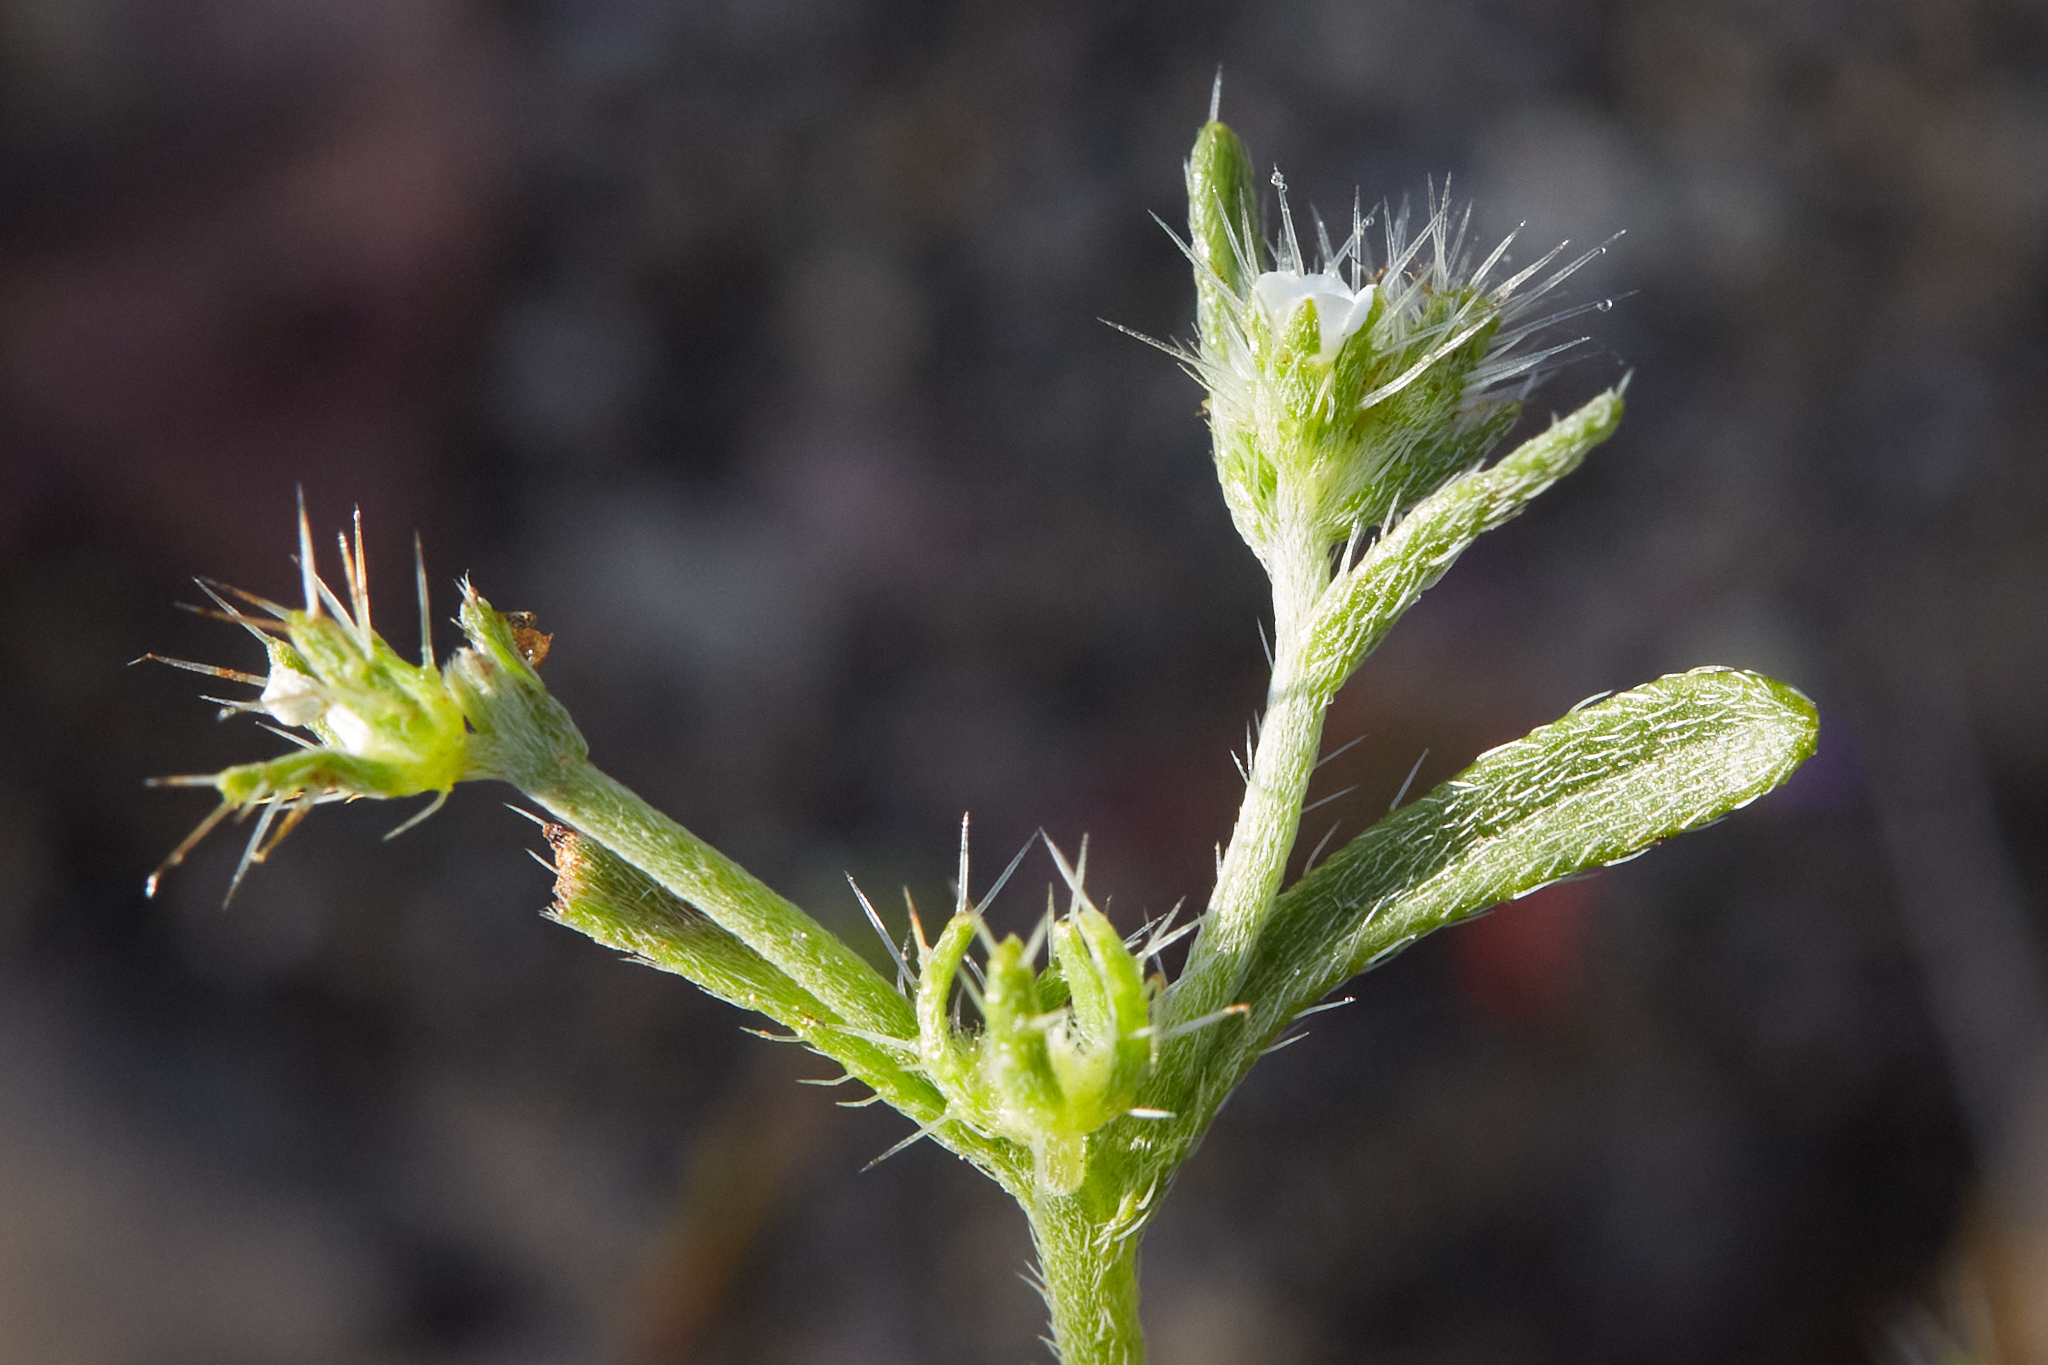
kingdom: Plantae
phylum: Tracheophyta
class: Magnoliopsida
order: Boraginales
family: Boraginaceae
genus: Pectocarya
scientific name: Pectocarya setosa
